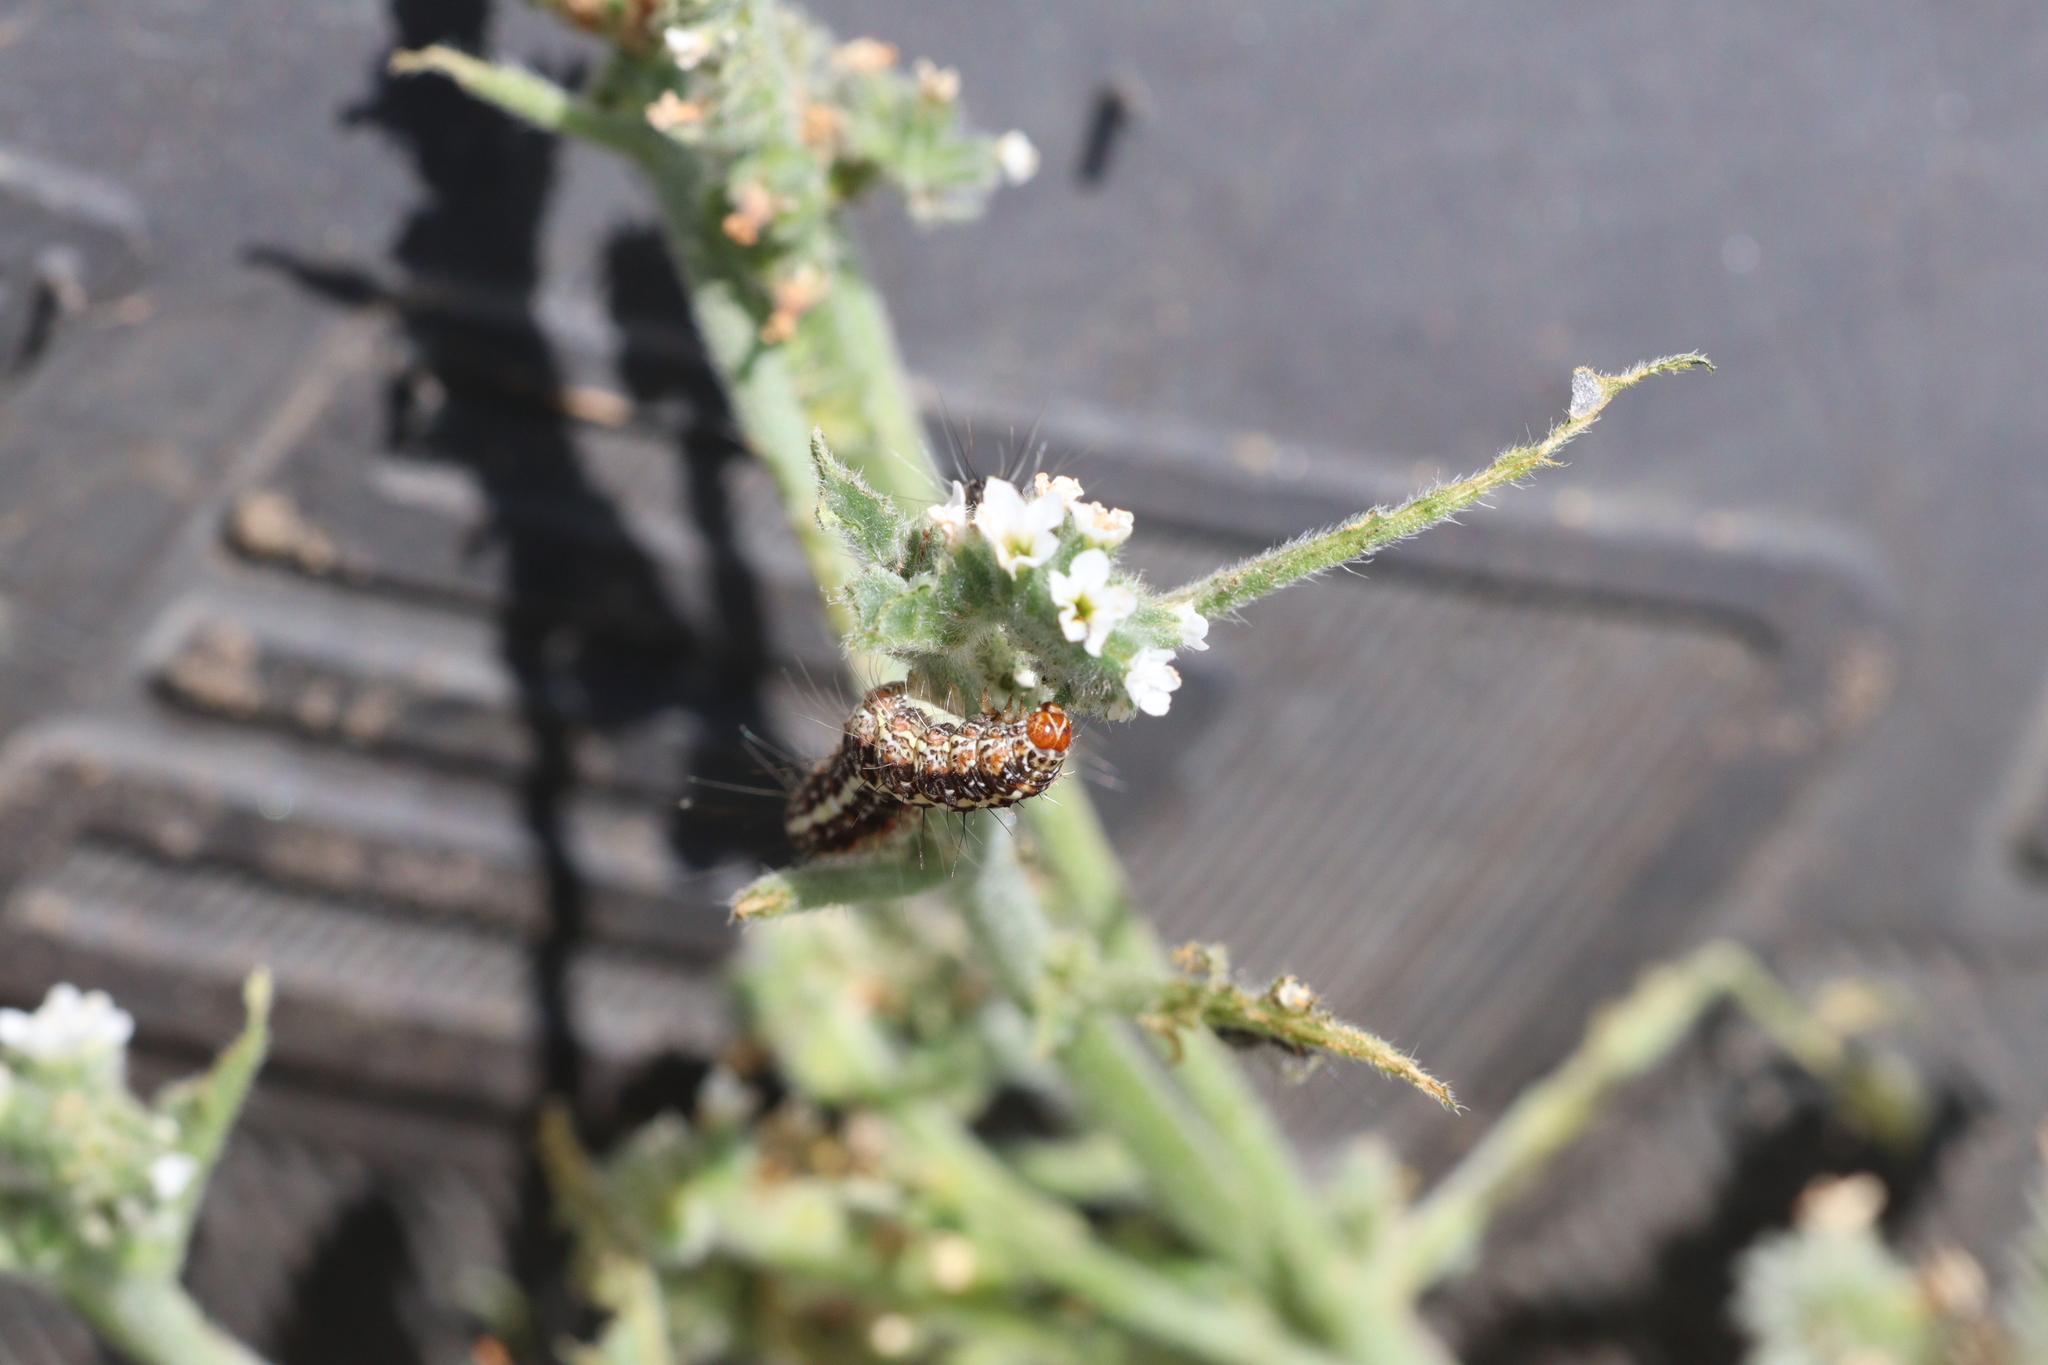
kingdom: Animalia
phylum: Arthropoda
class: Insecta
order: Lepidoptera
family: Erebidae
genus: Utetheisa
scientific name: Utetheisa pulchelloides
